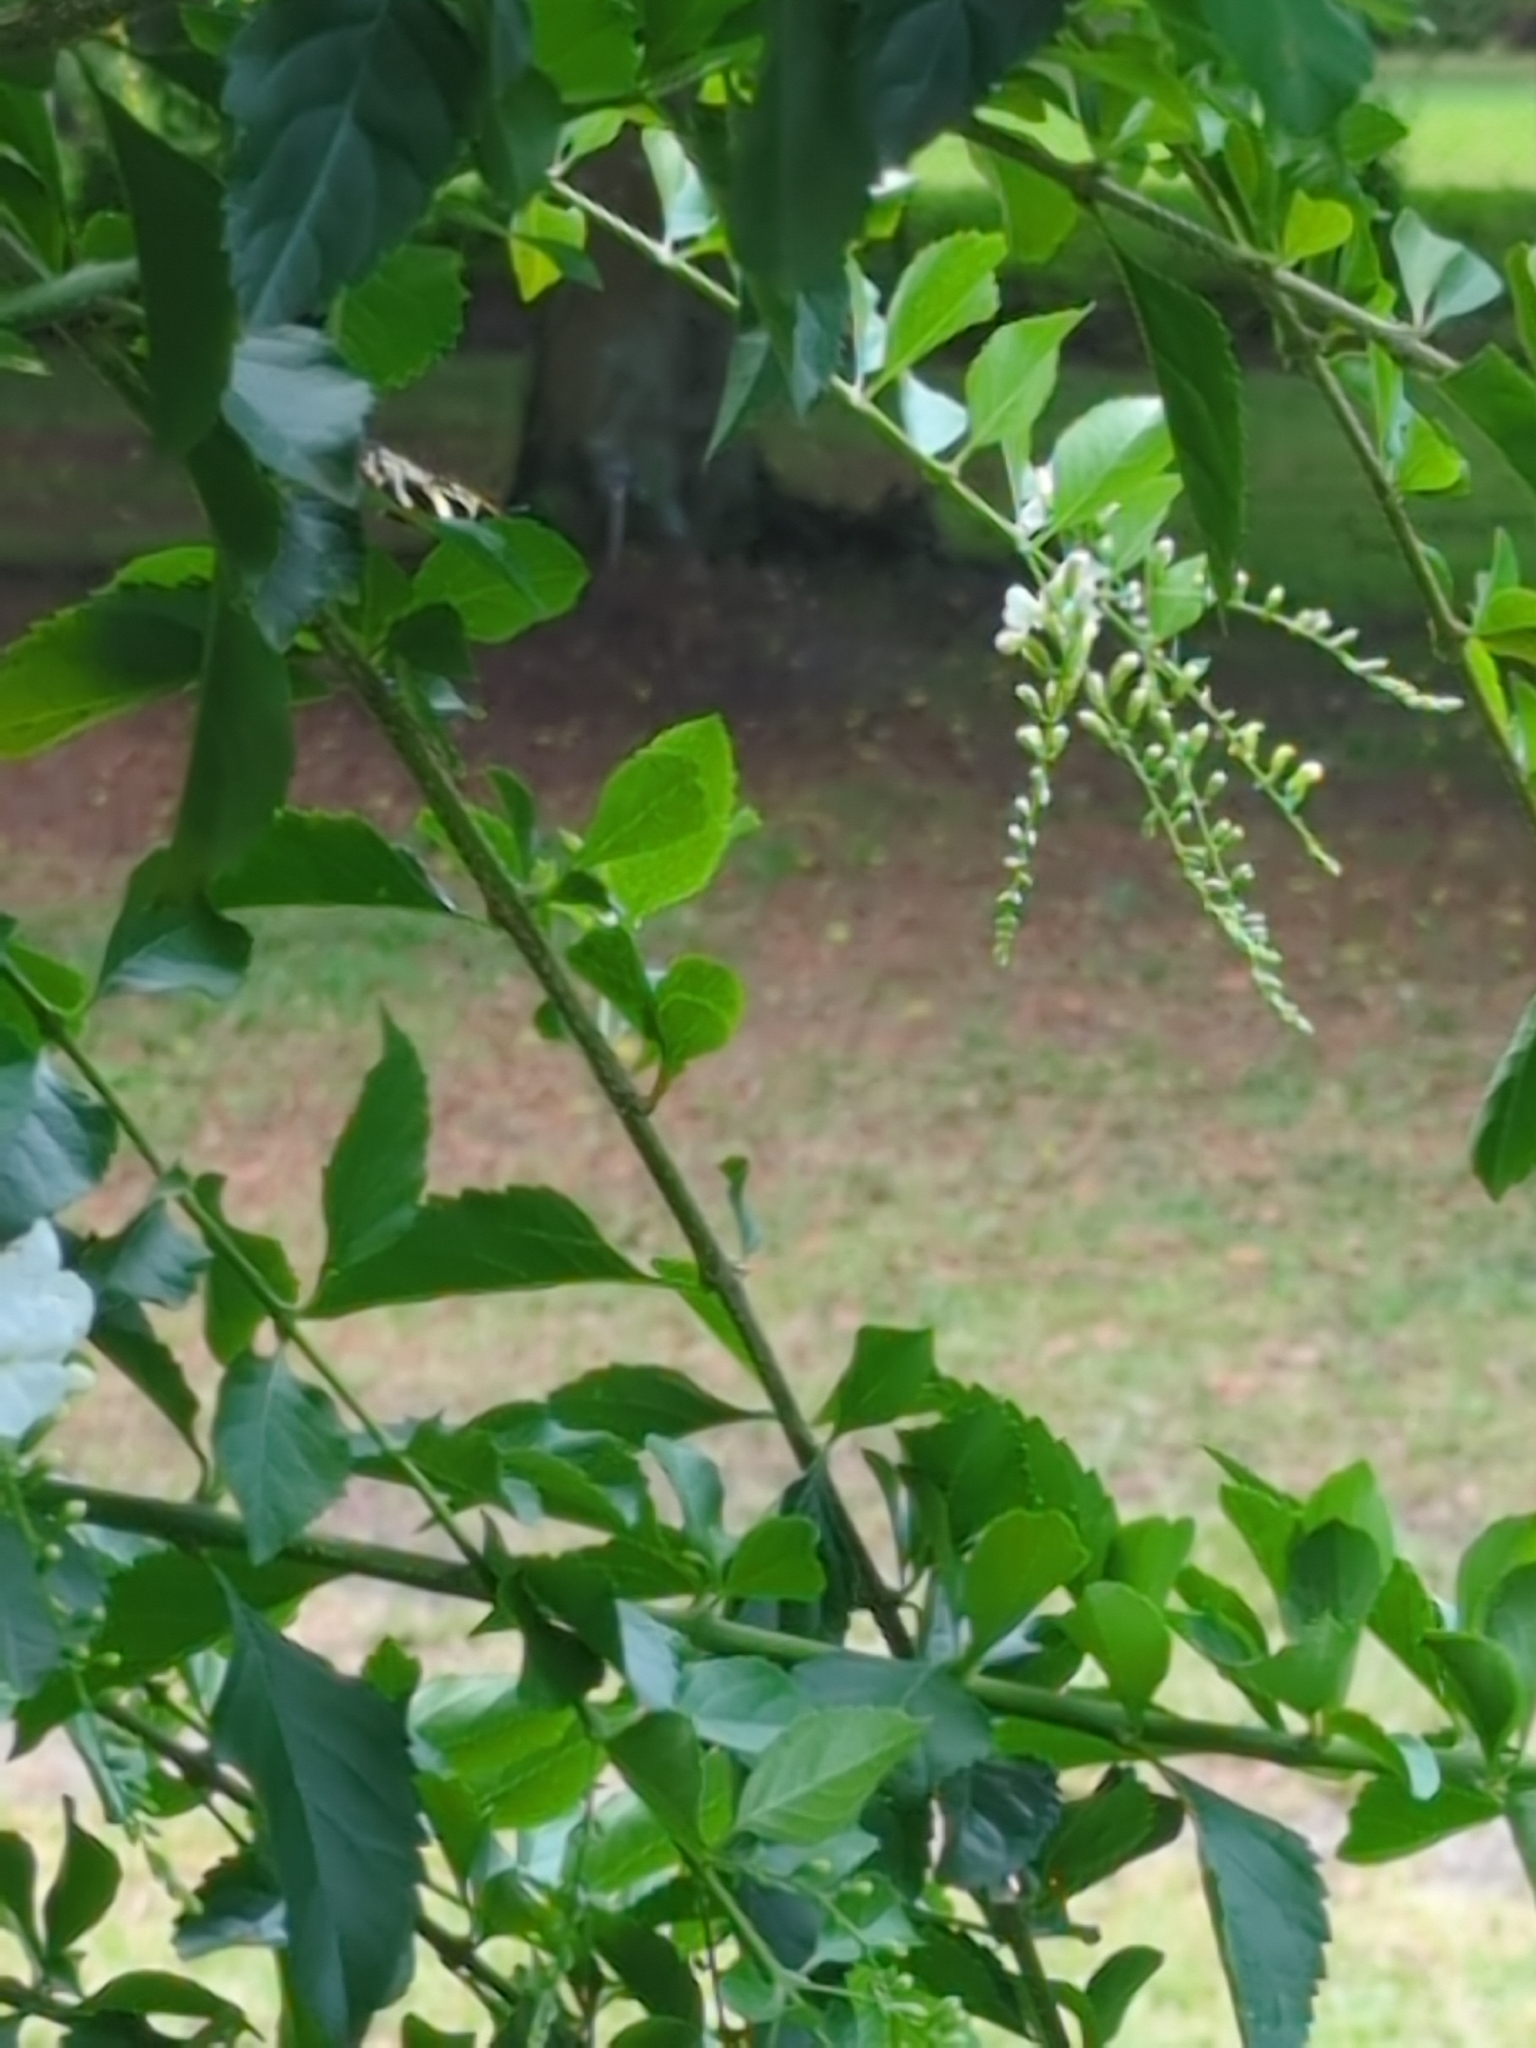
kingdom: Animalia
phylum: Arthropoda
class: Insecta
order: Lepidoptera
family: Nymphalidae
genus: Heliconius
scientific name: Heliconius charithonia
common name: Zebra long wing
